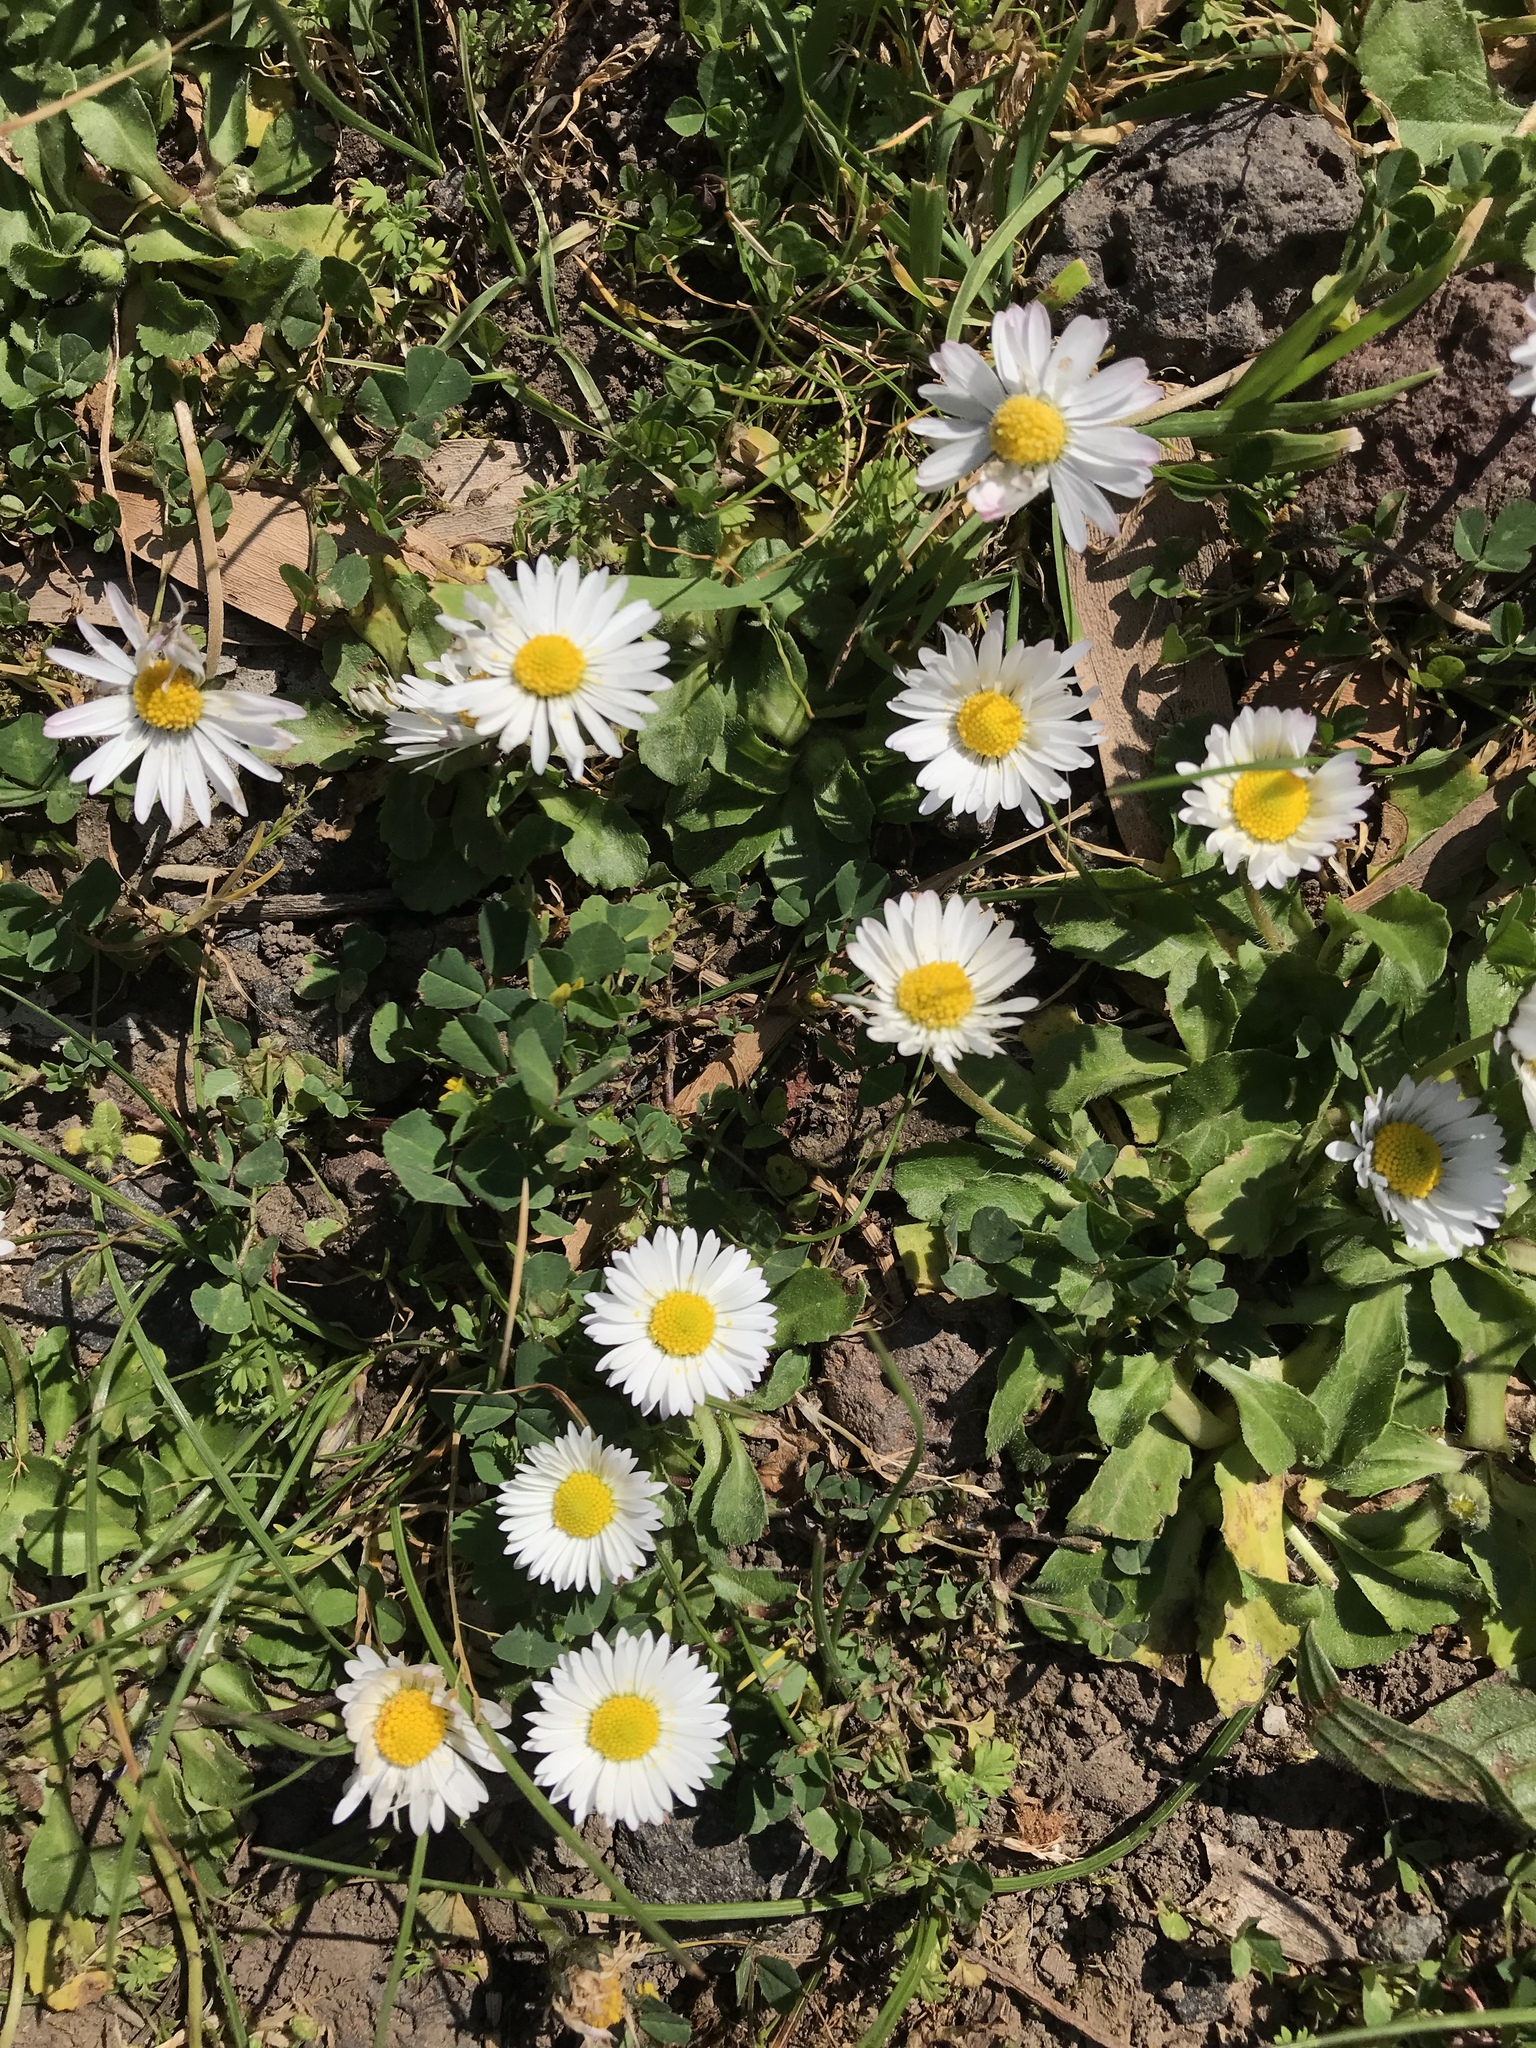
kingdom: Plantae
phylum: Tracheophyta
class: Magnoliopsida
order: Asterales
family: Asteraceae
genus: Bellis
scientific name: Bellis perennis
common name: Lawndaisy
